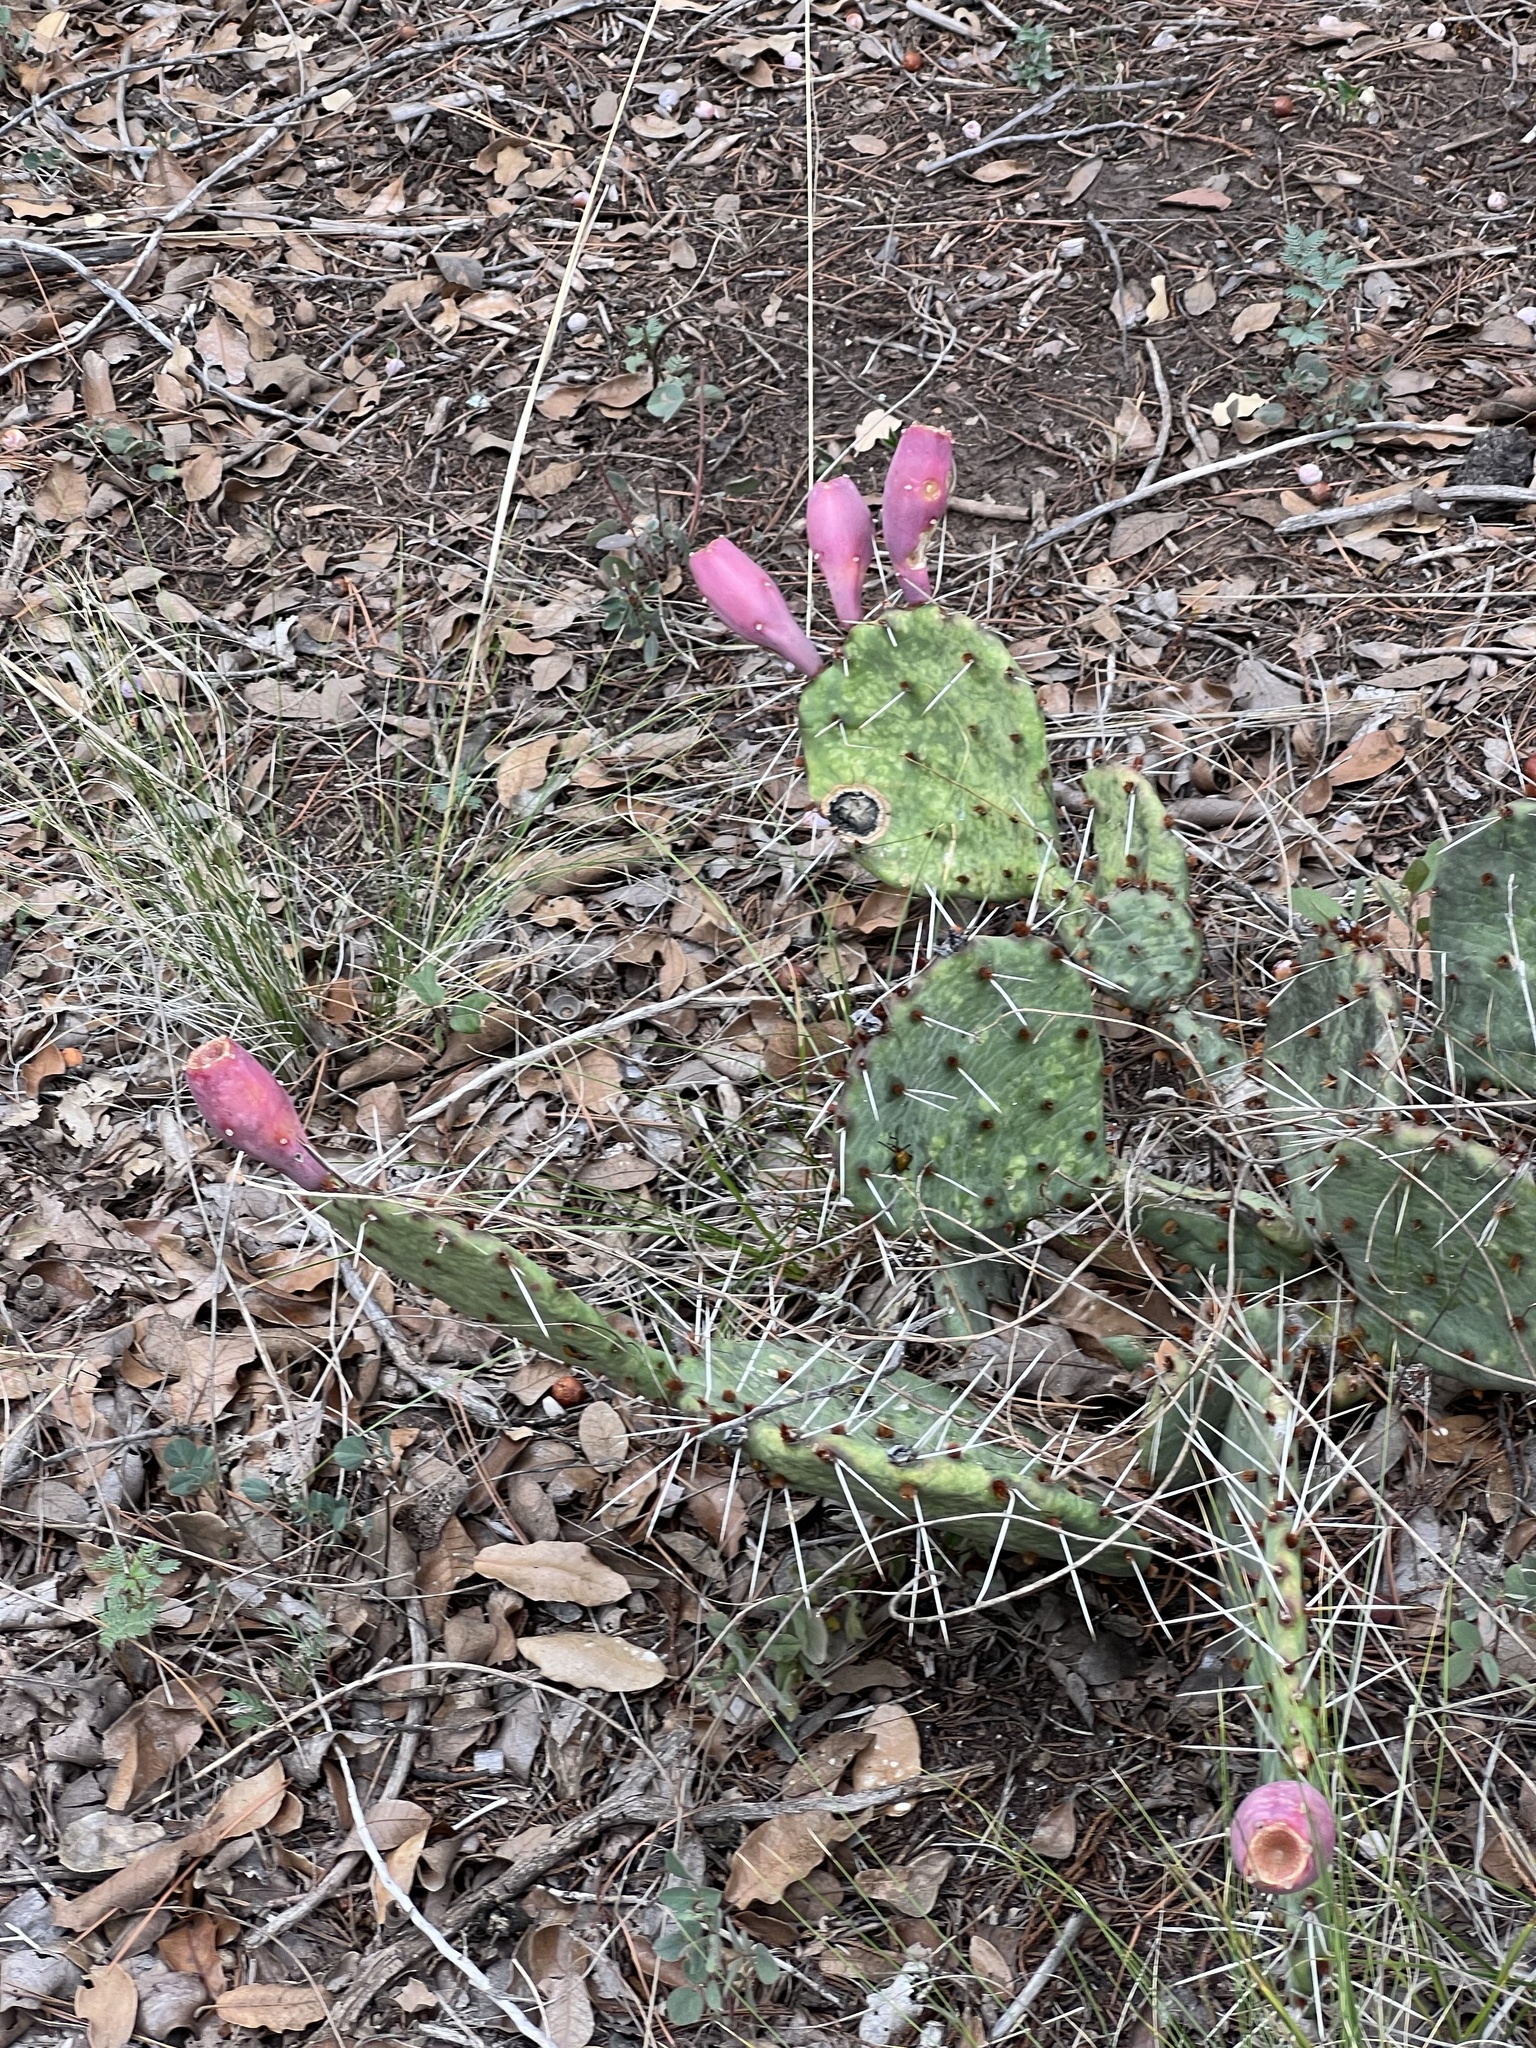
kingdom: Plantae
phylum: Tracheophyta
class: Magnoliopsida
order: Caryophyllales
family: Cactaceae
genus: Opuntia
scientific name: Opuntia macrorhiza
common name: Grassland pricklypear
